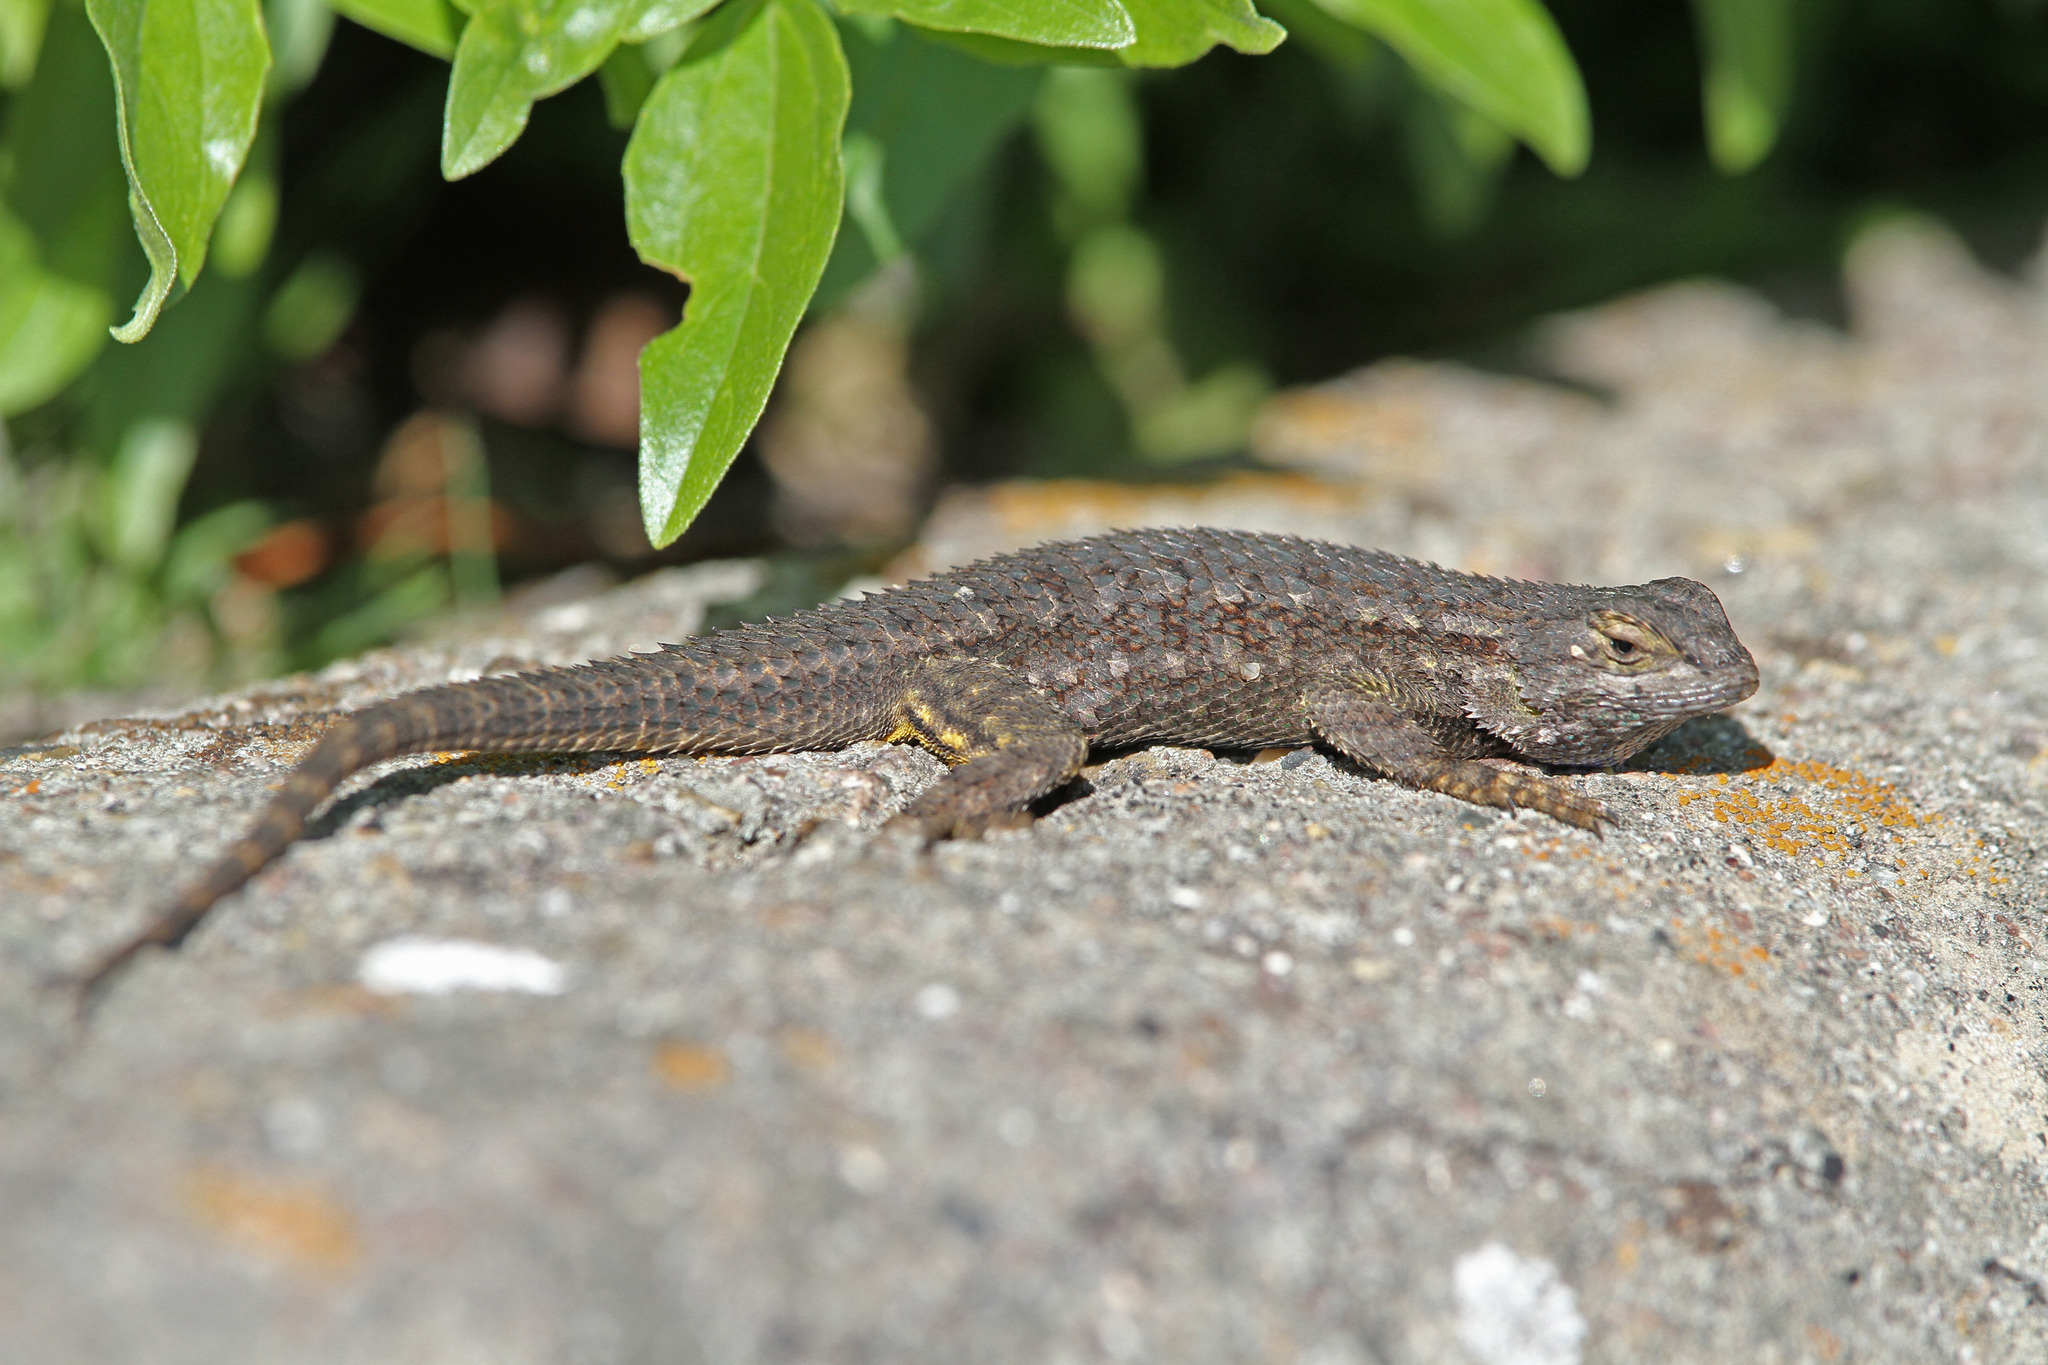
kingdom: Animalia
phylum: Chordata
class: Squamata
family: Phrynosomatidae
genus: Sceloporus
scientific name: Sceloporus occidentalis
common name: Western fence lizard
